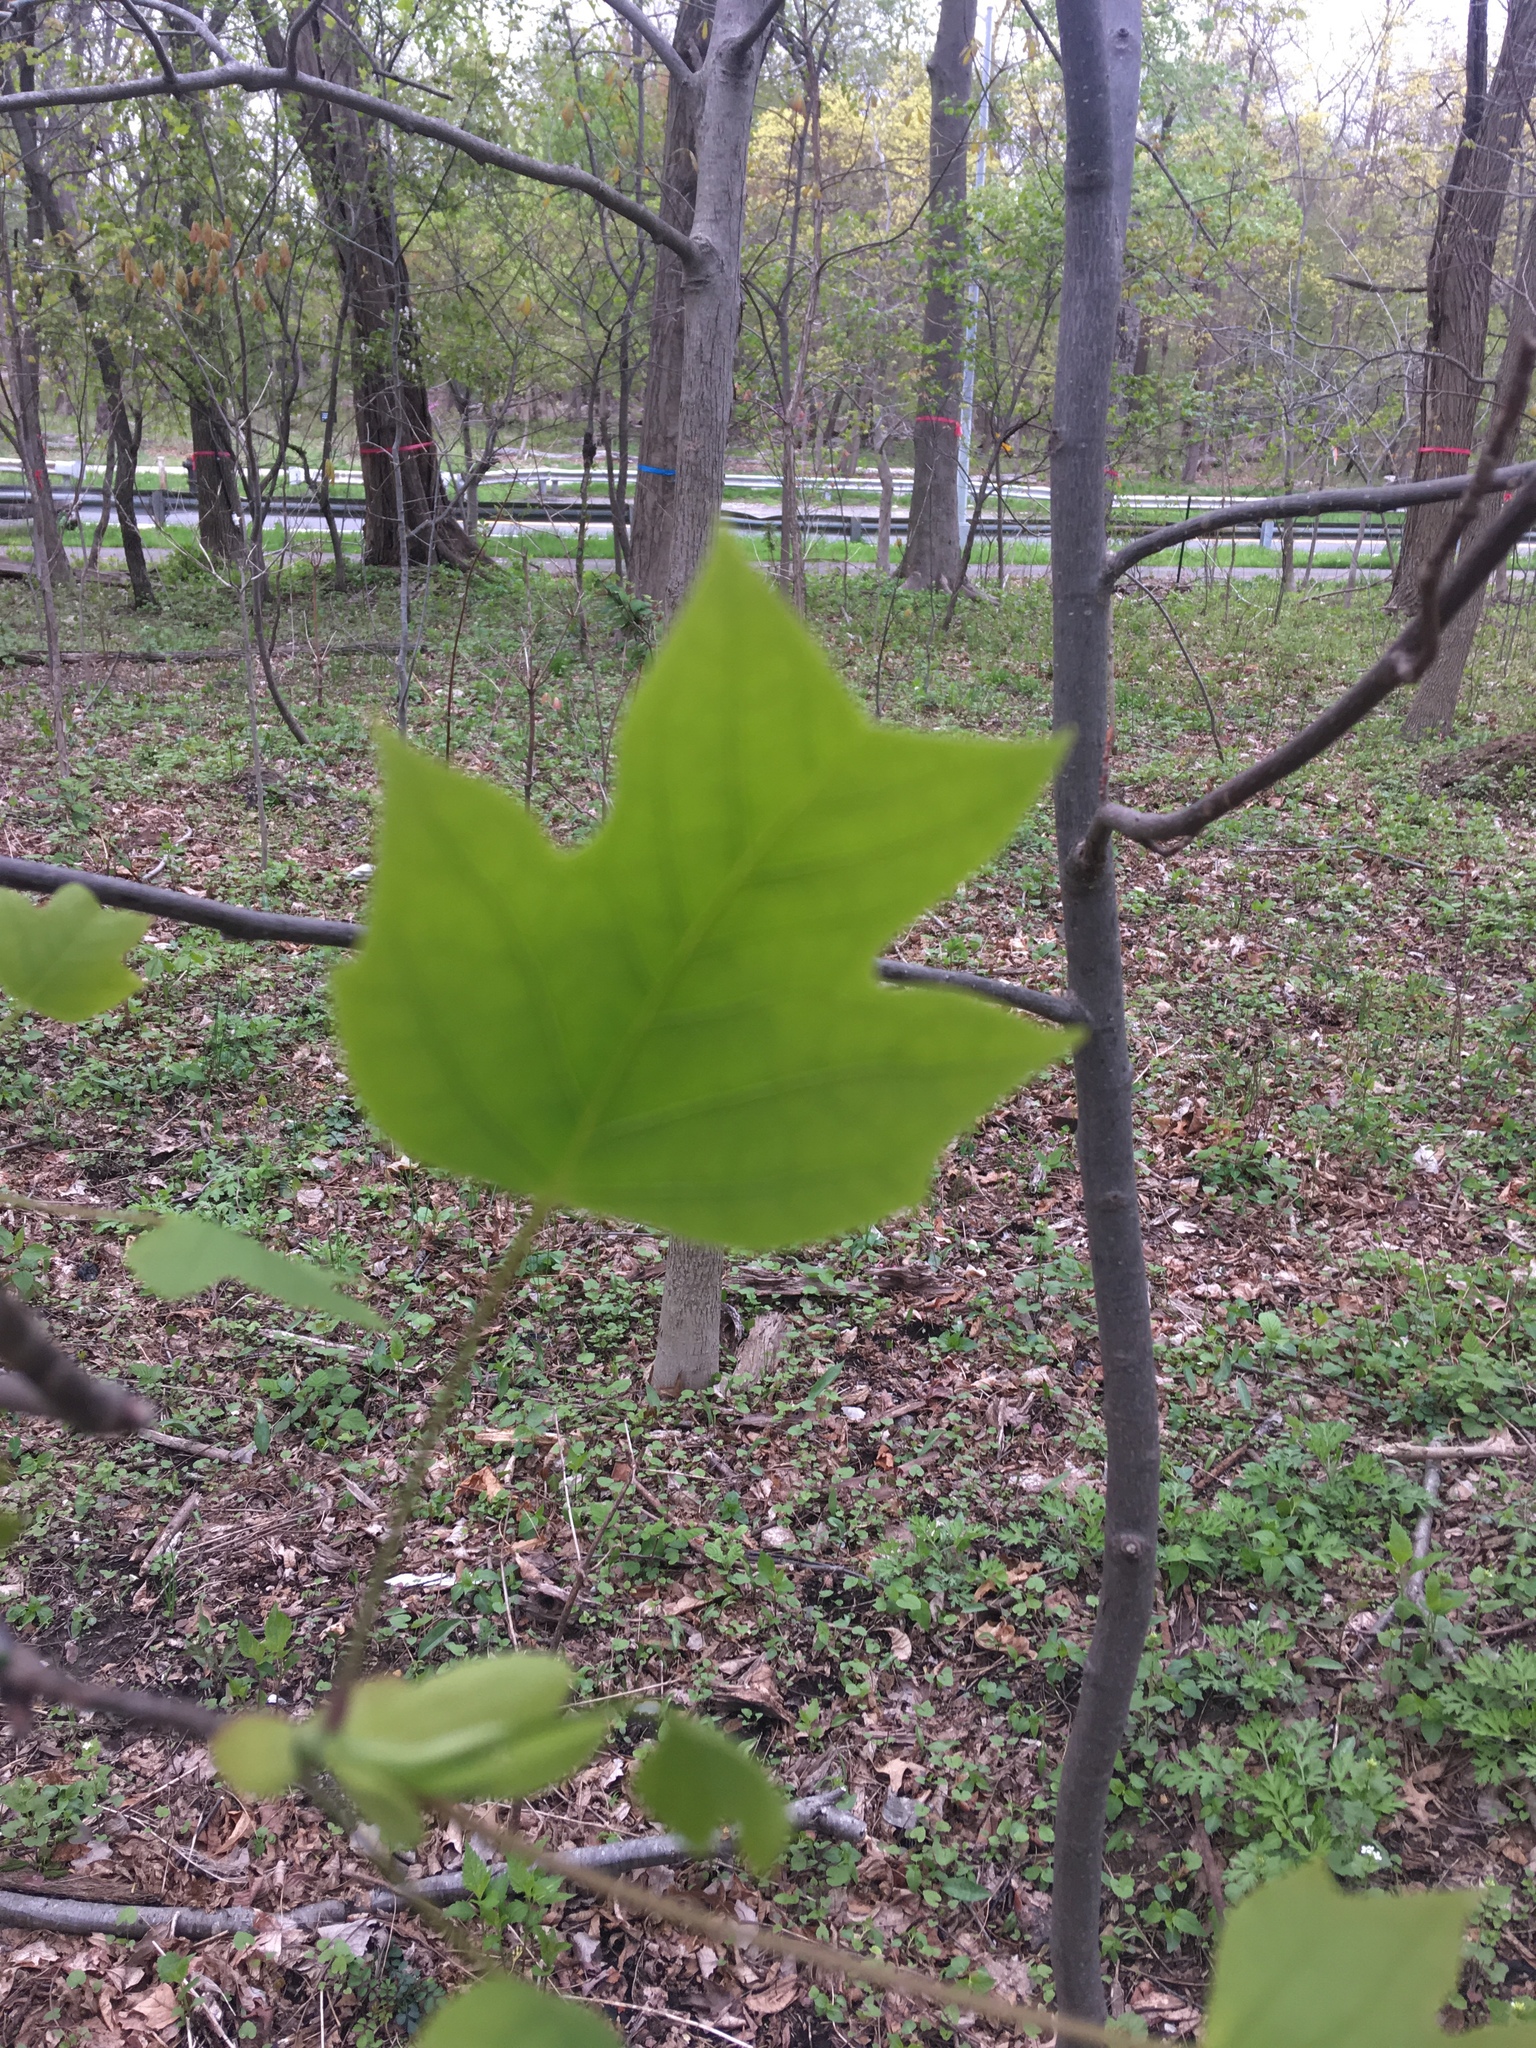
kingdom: Plantae
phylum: Tracheophyta
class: Magnoliopsida
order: Magnoliales
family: Magnoliaceae
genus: Liriodendron
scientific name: Liriodendron tulipifera
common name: Tulip tree
